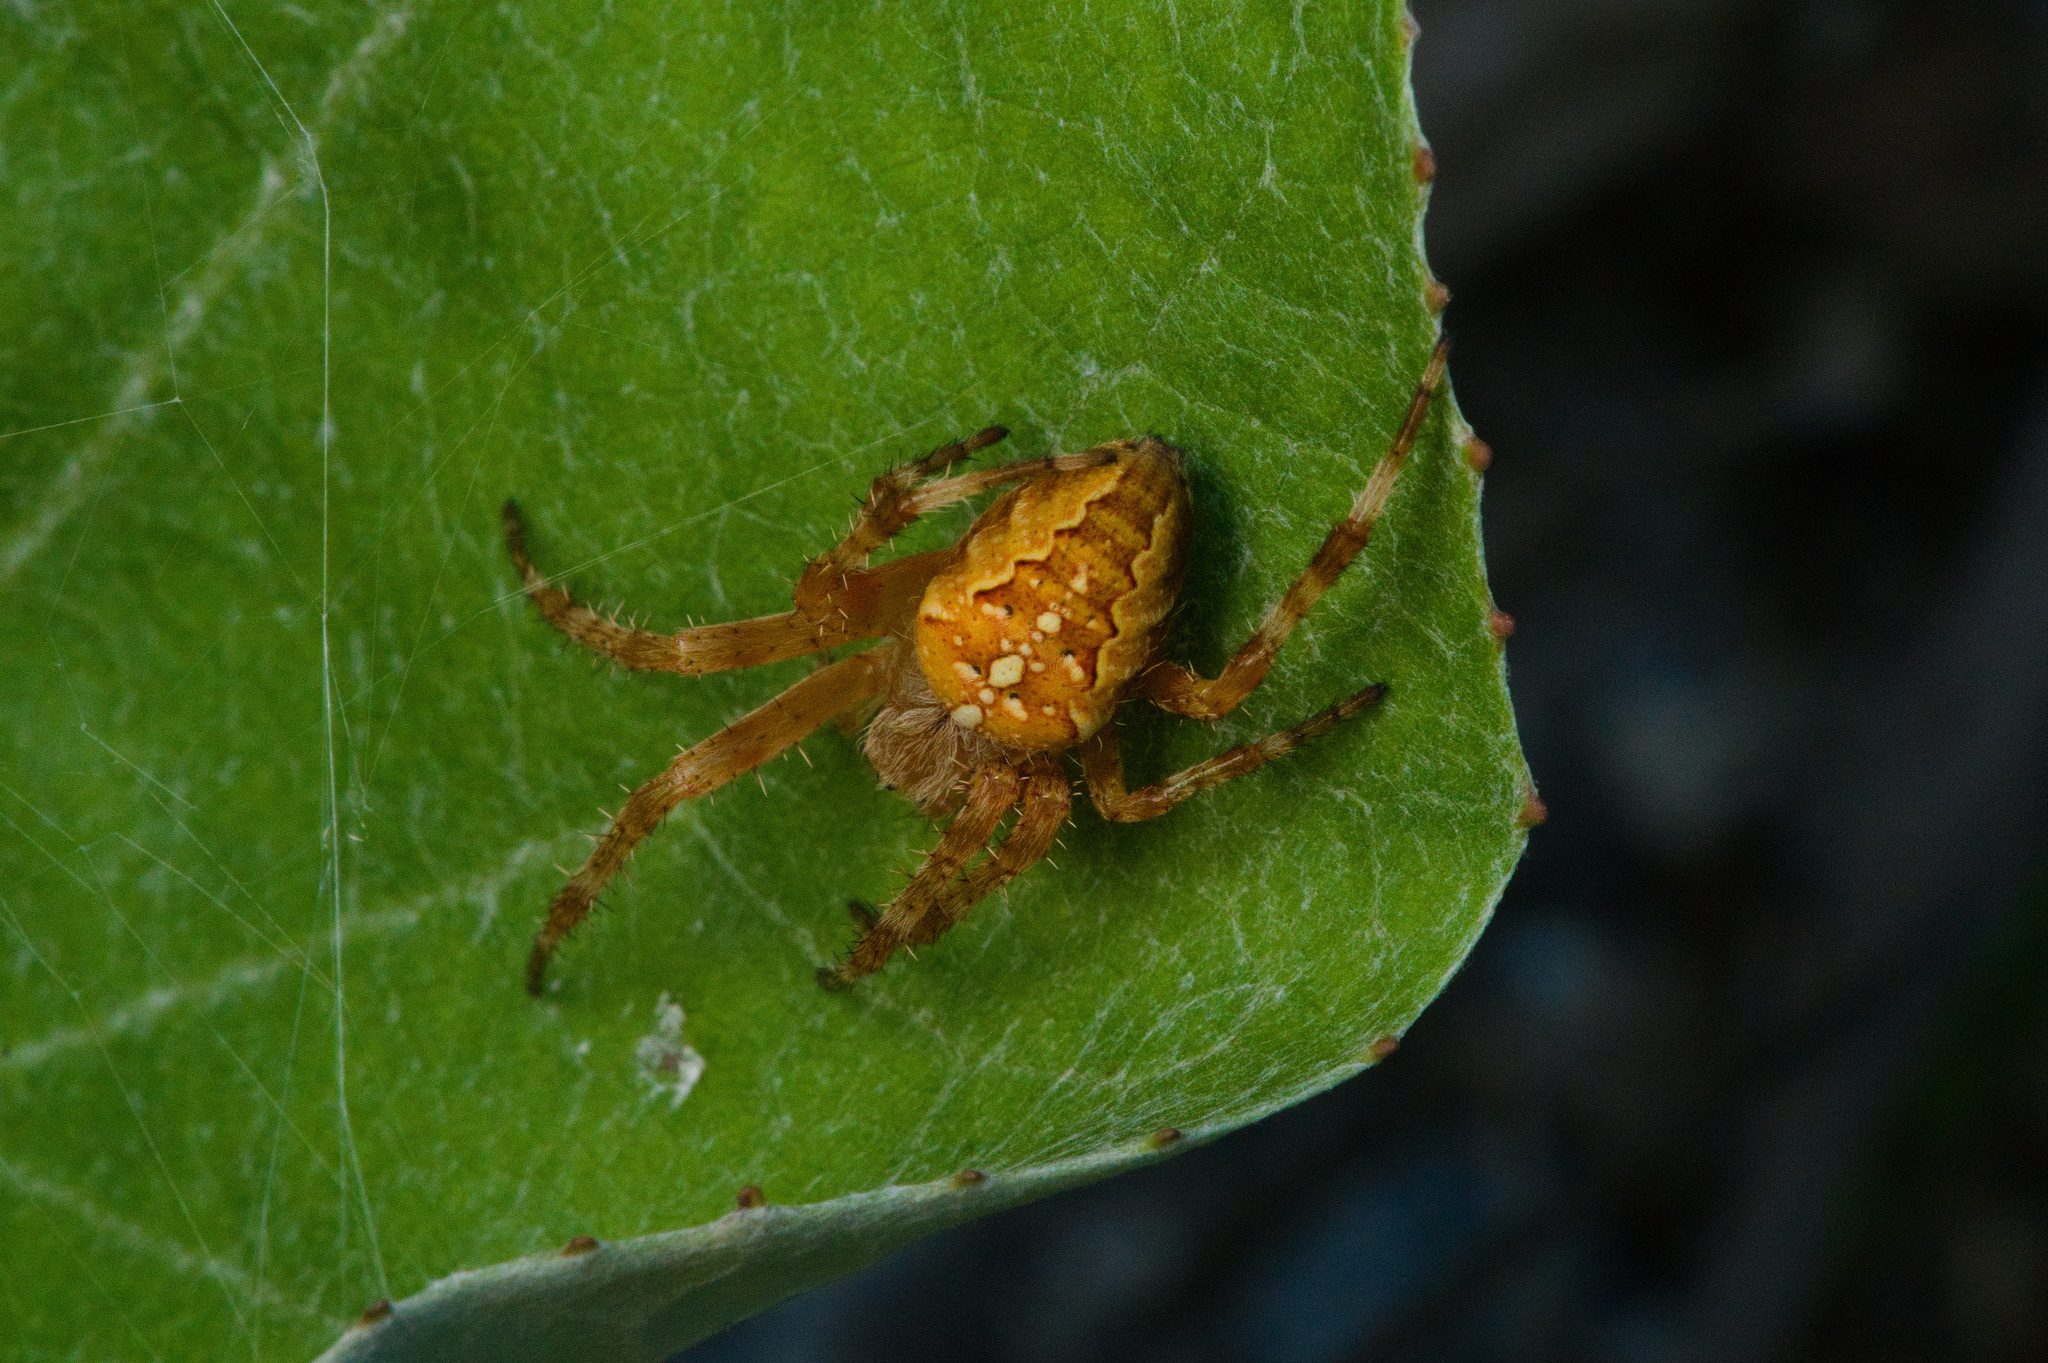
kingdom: Animalia
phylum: Arthropoda
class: Arachnida
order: Araneae
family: Araneidae
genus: Araneus
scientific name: Araneus diadematus
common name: Cross orbweaver
